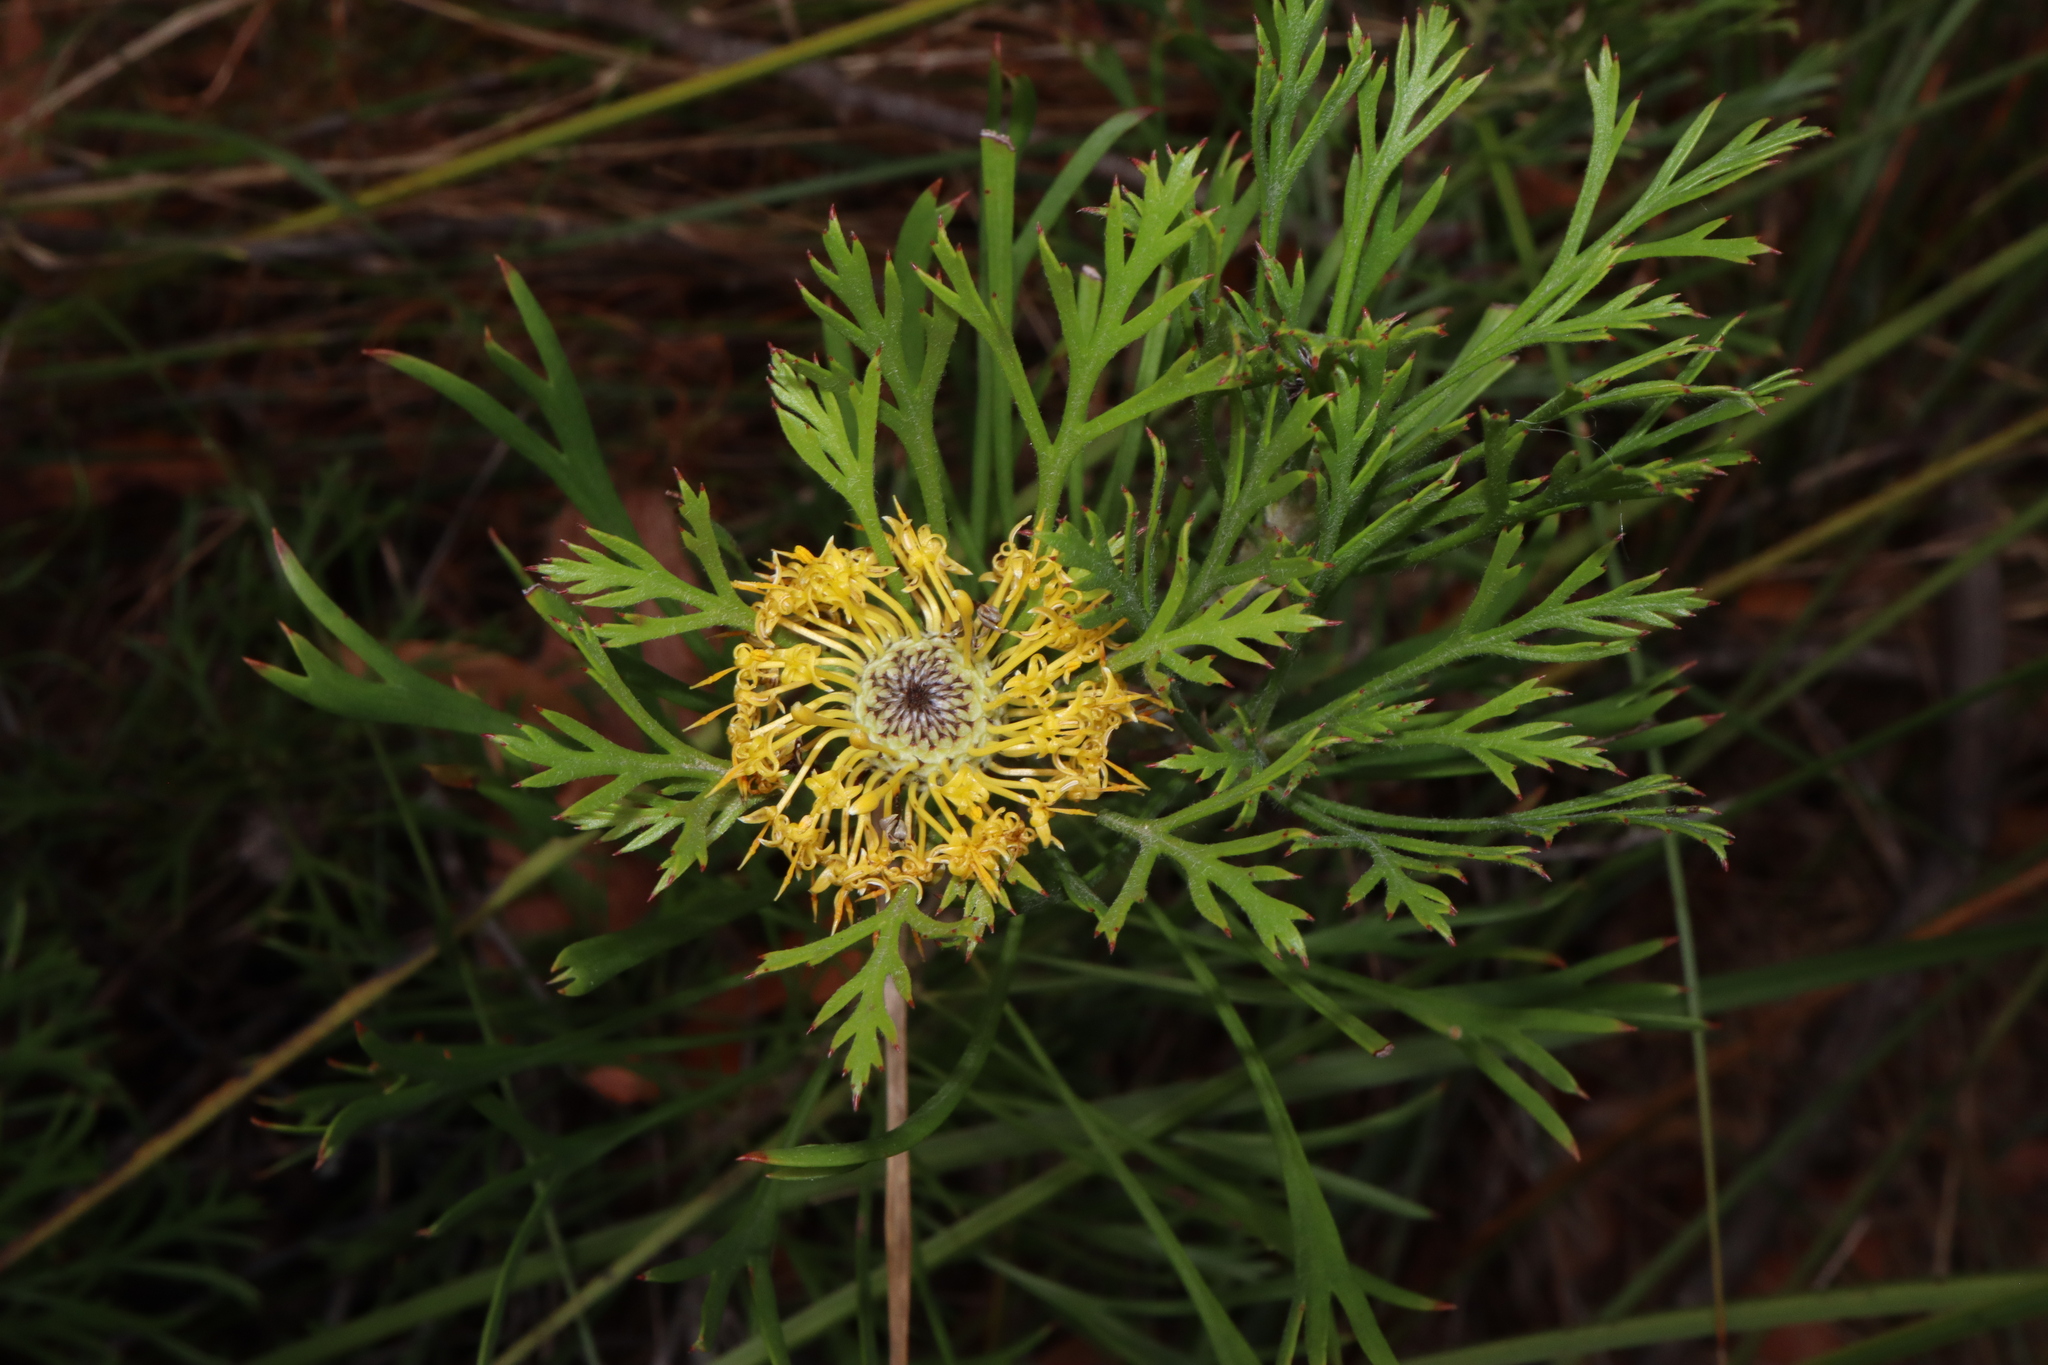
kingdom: Plantae
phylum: Tracheophyta
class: Magnoliopsida
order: Proteales
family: Proteaceae
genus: Isopogon
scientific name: Isopogon anemonifolius
